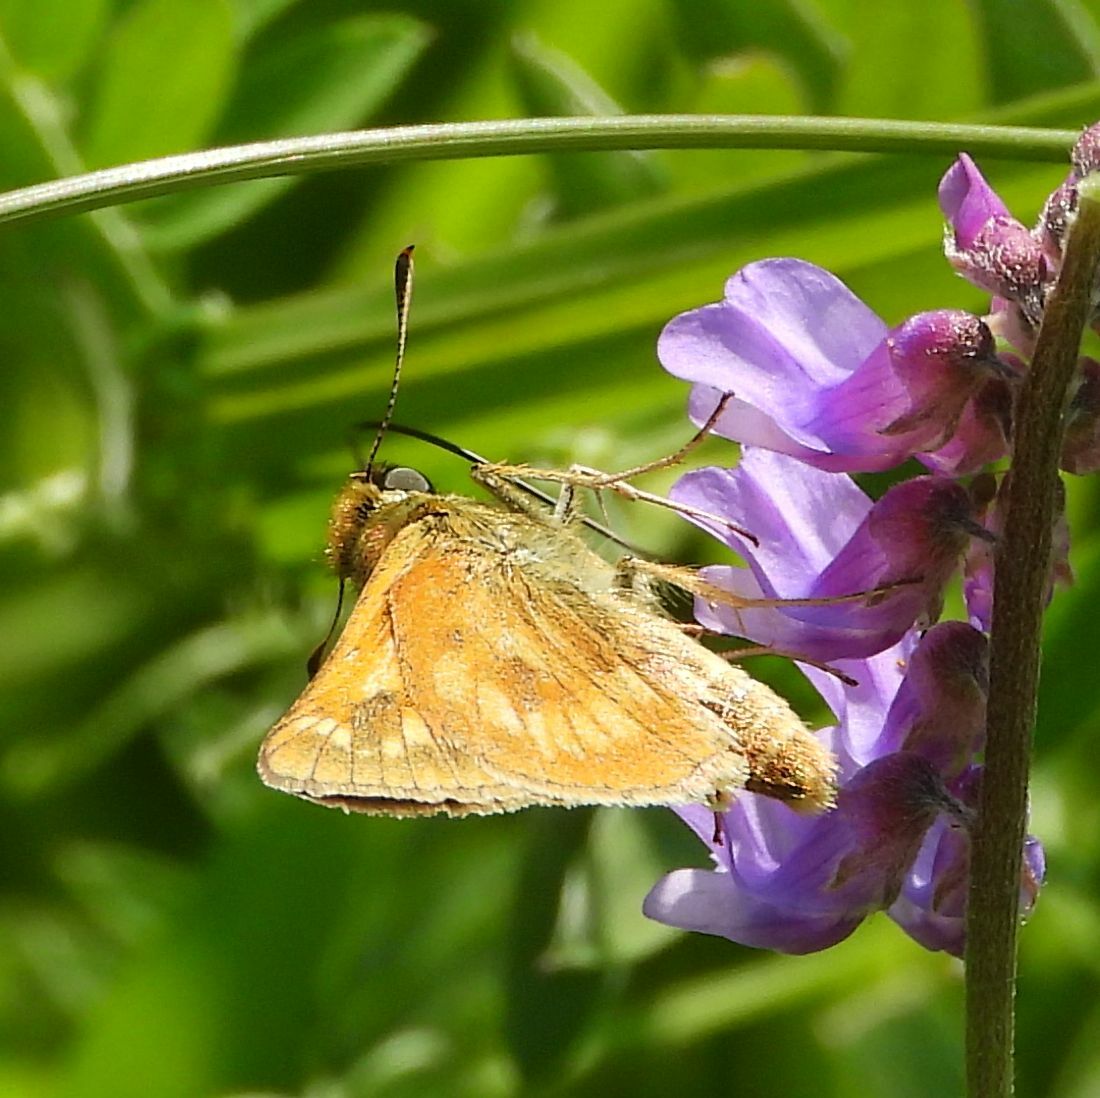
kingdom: Animalia
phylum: Arthropoda
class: Insecta
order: Lepidoptera
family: Hesperiidae
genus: Polites
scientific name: Polites mystic
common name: Long dash
